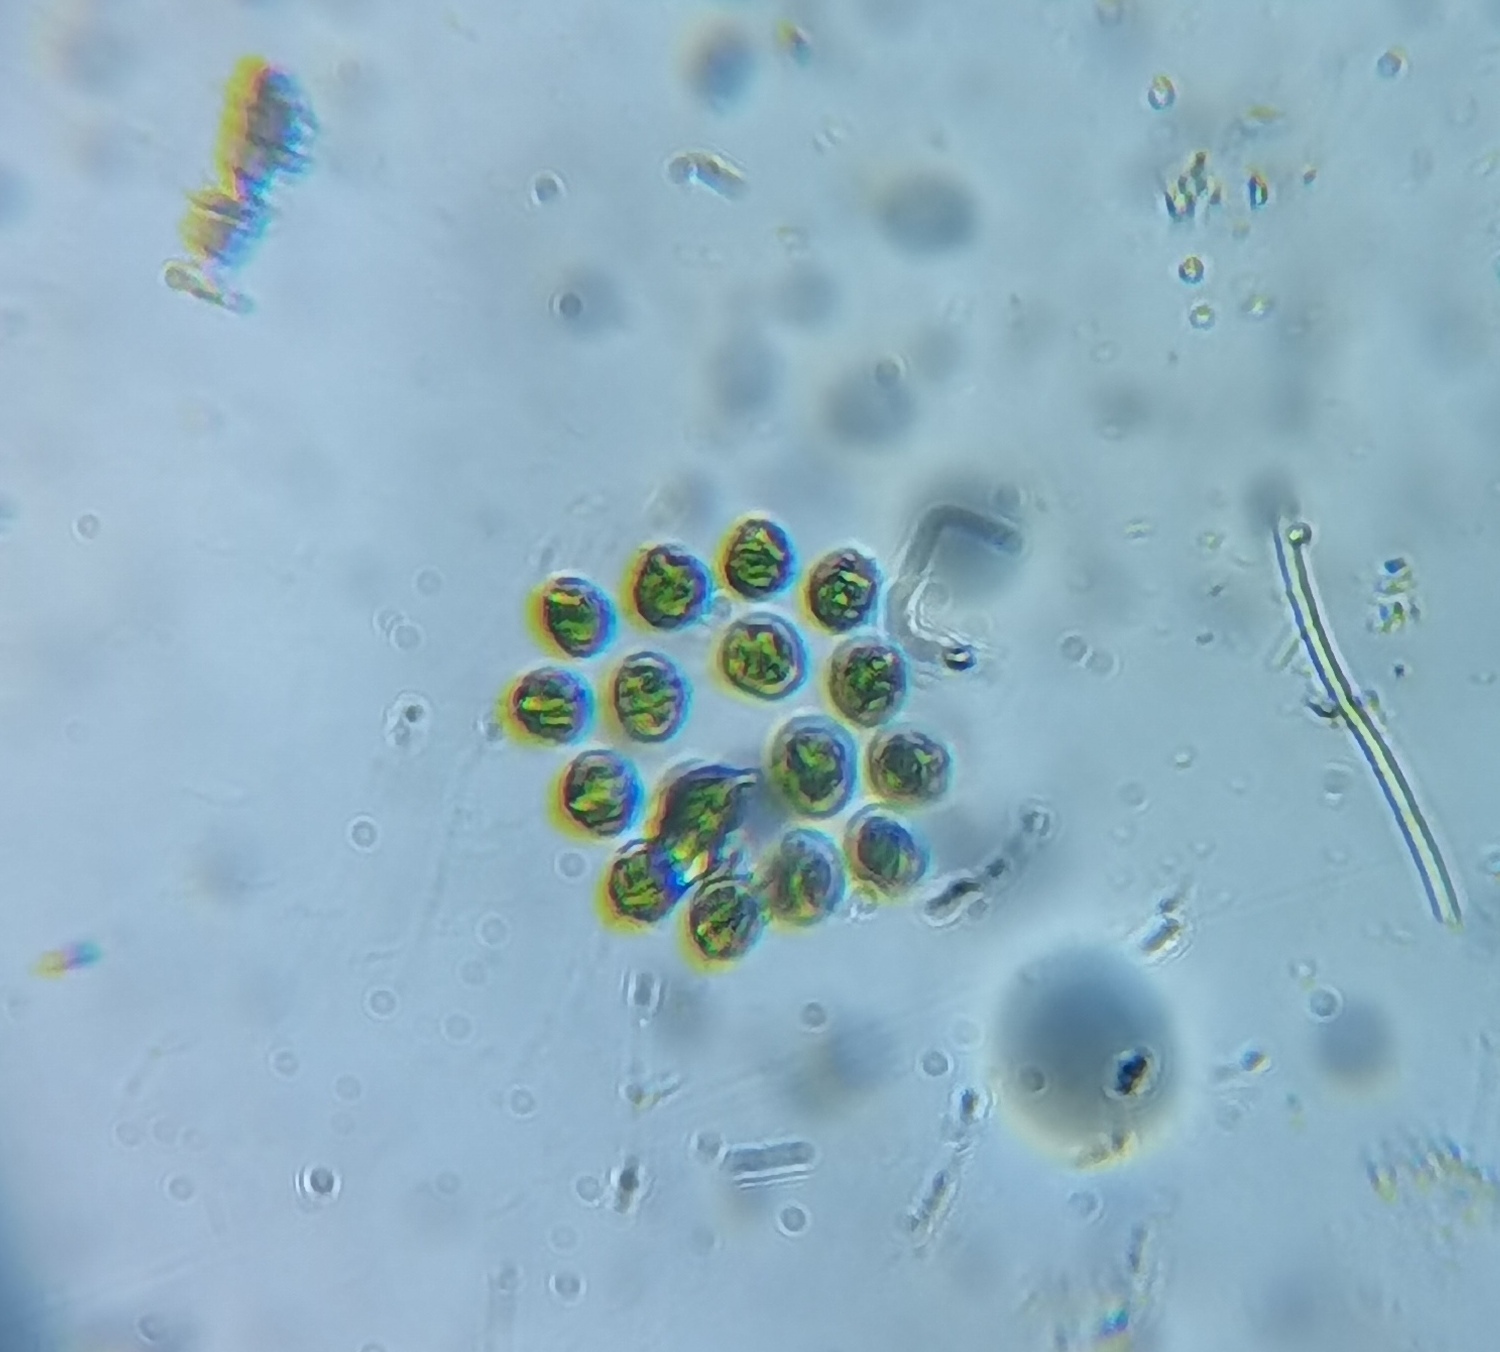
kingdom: Plantae
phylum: Chlorophyta
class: Chlorophyceae
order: Volvocales
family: Goniaceae
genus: Gonium
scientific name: Gonium pectorale
